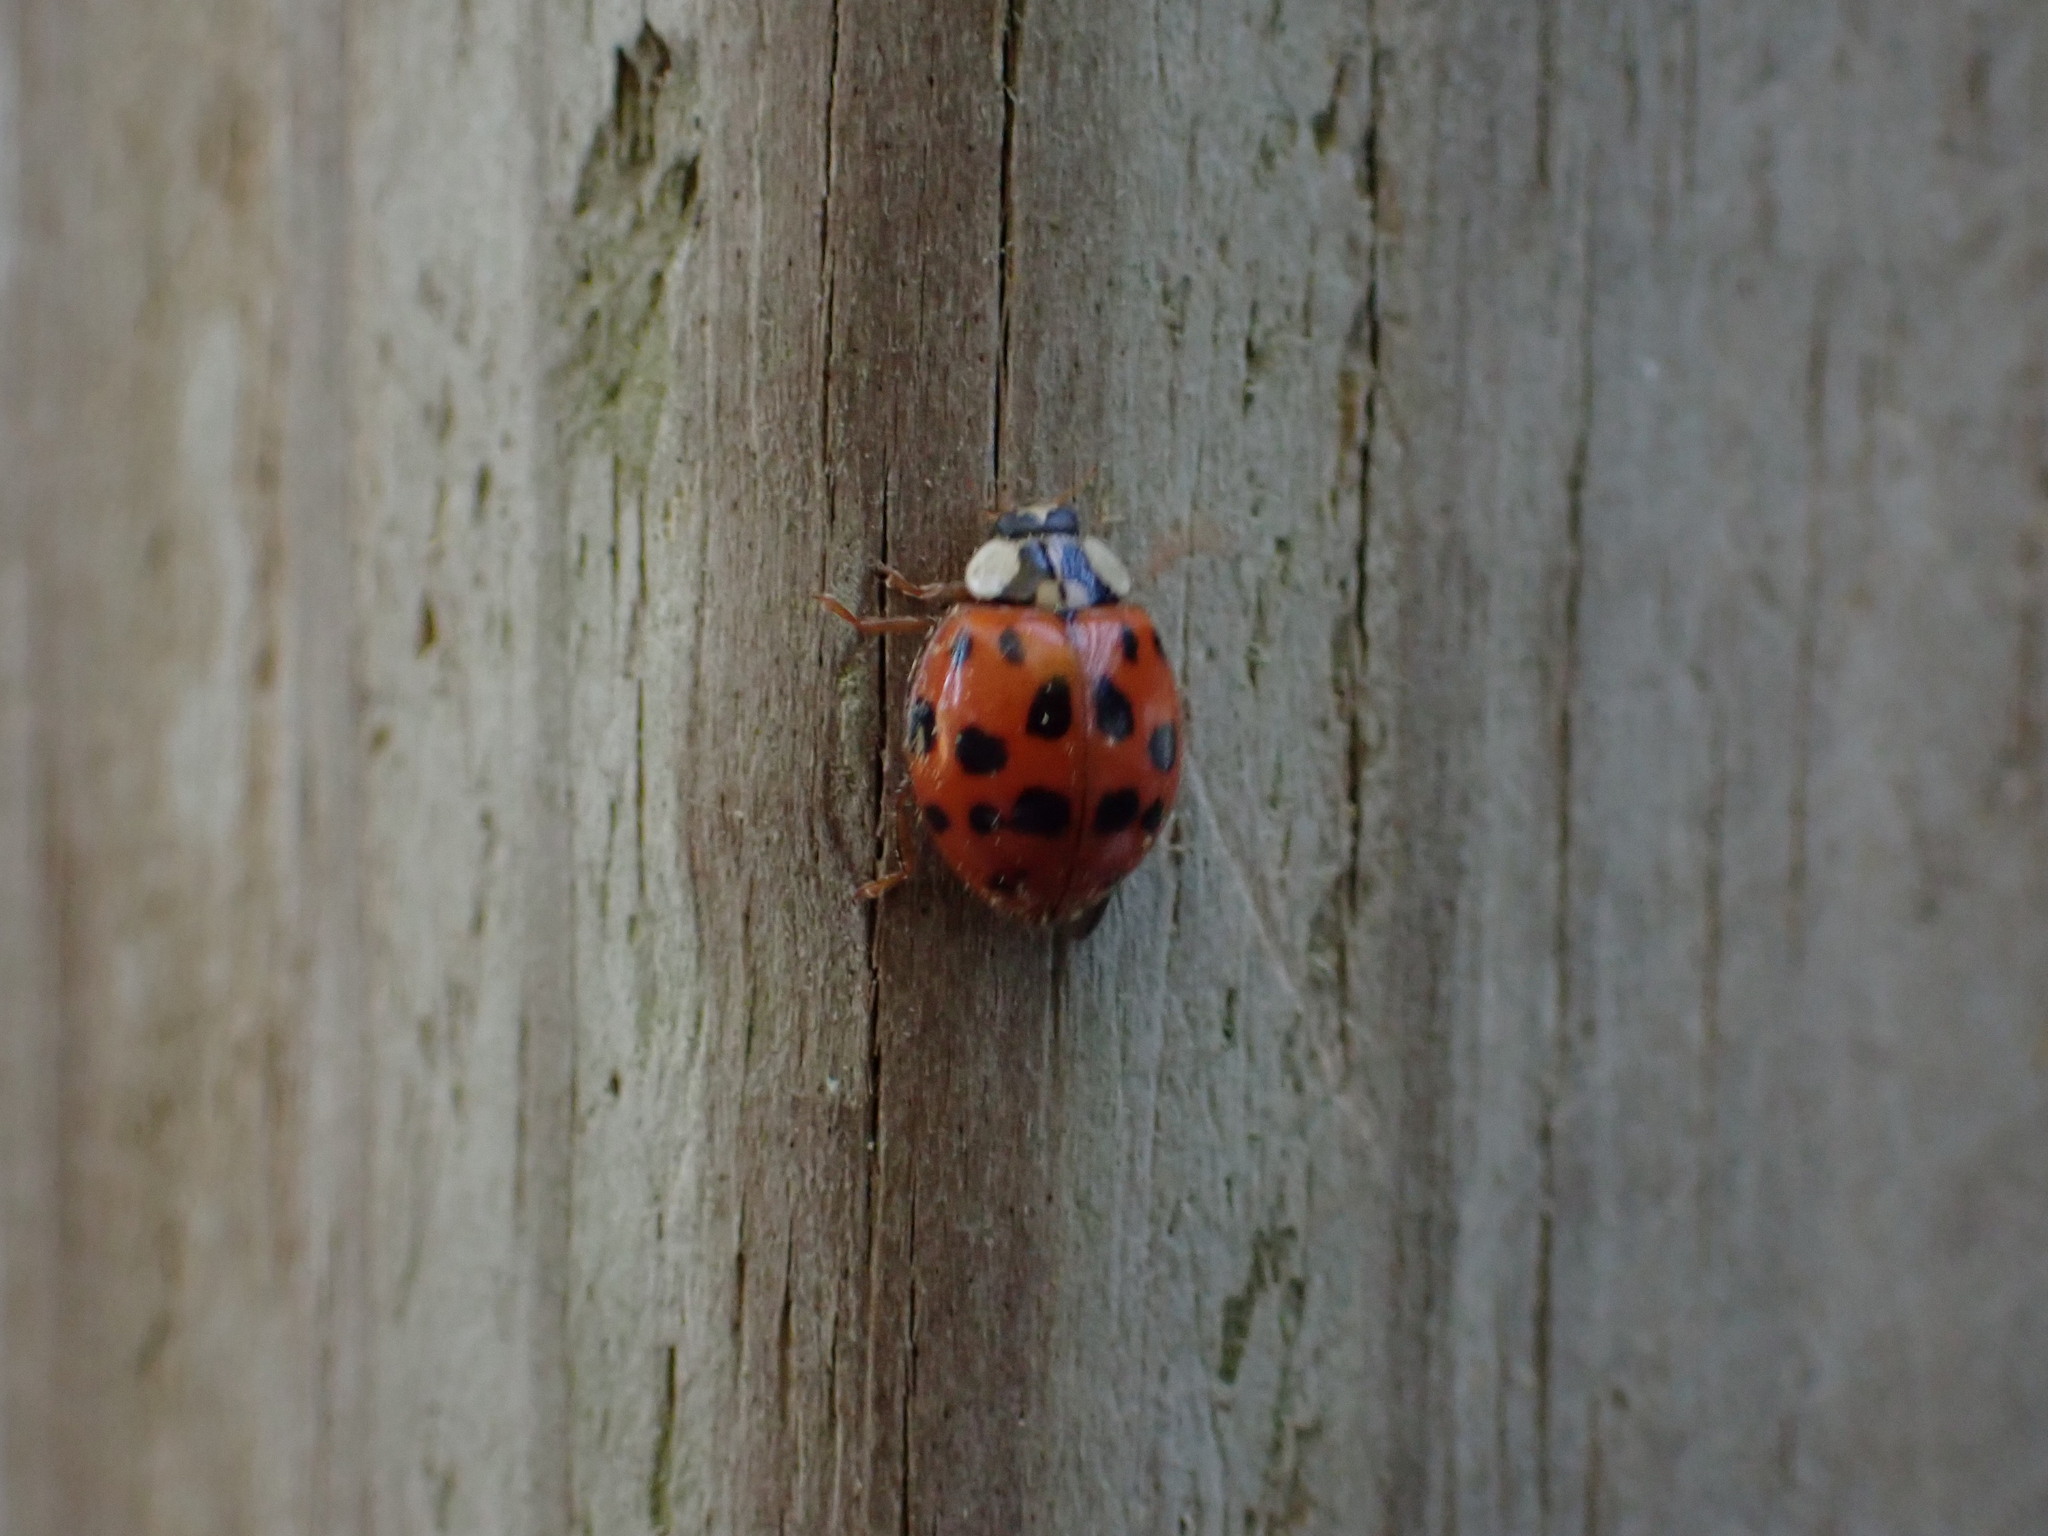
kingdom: Animalia
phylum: Arthropoda
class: Insecta
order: Coleoptera
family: Coccinellidae
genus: Harmonia
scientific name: Harmonia axyridis
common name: Harlequin ladybird
